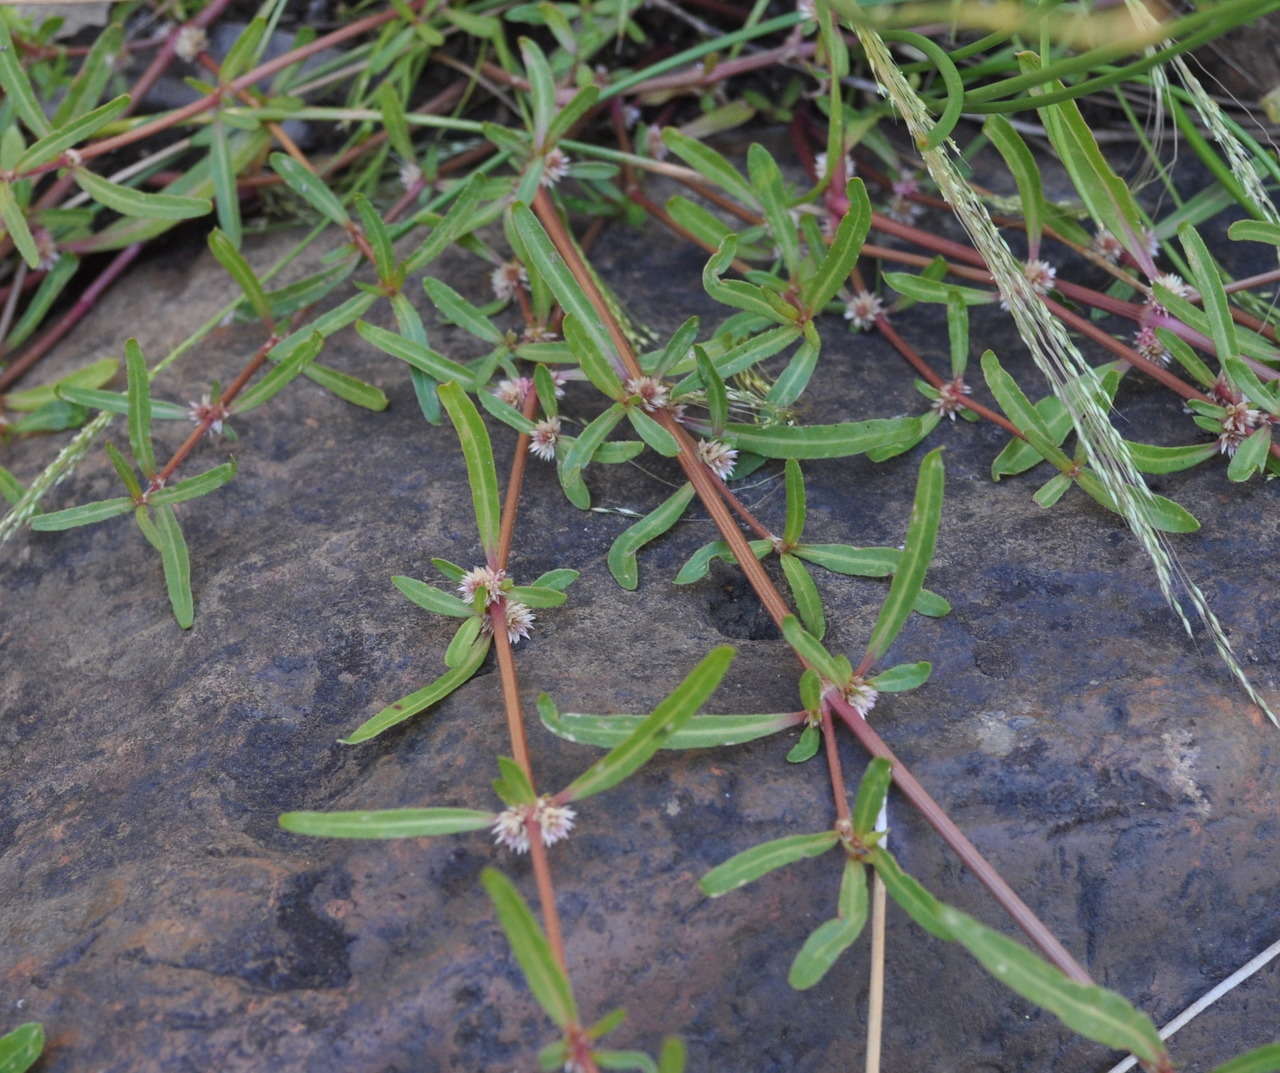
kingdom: Plantae
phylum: Tracheophyta
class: Magnoliopsida
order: Caryophyllales
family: Amaranthaceae
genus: Alternanthera
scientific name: Alternanthera denticulata
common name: Lesser joyweed
